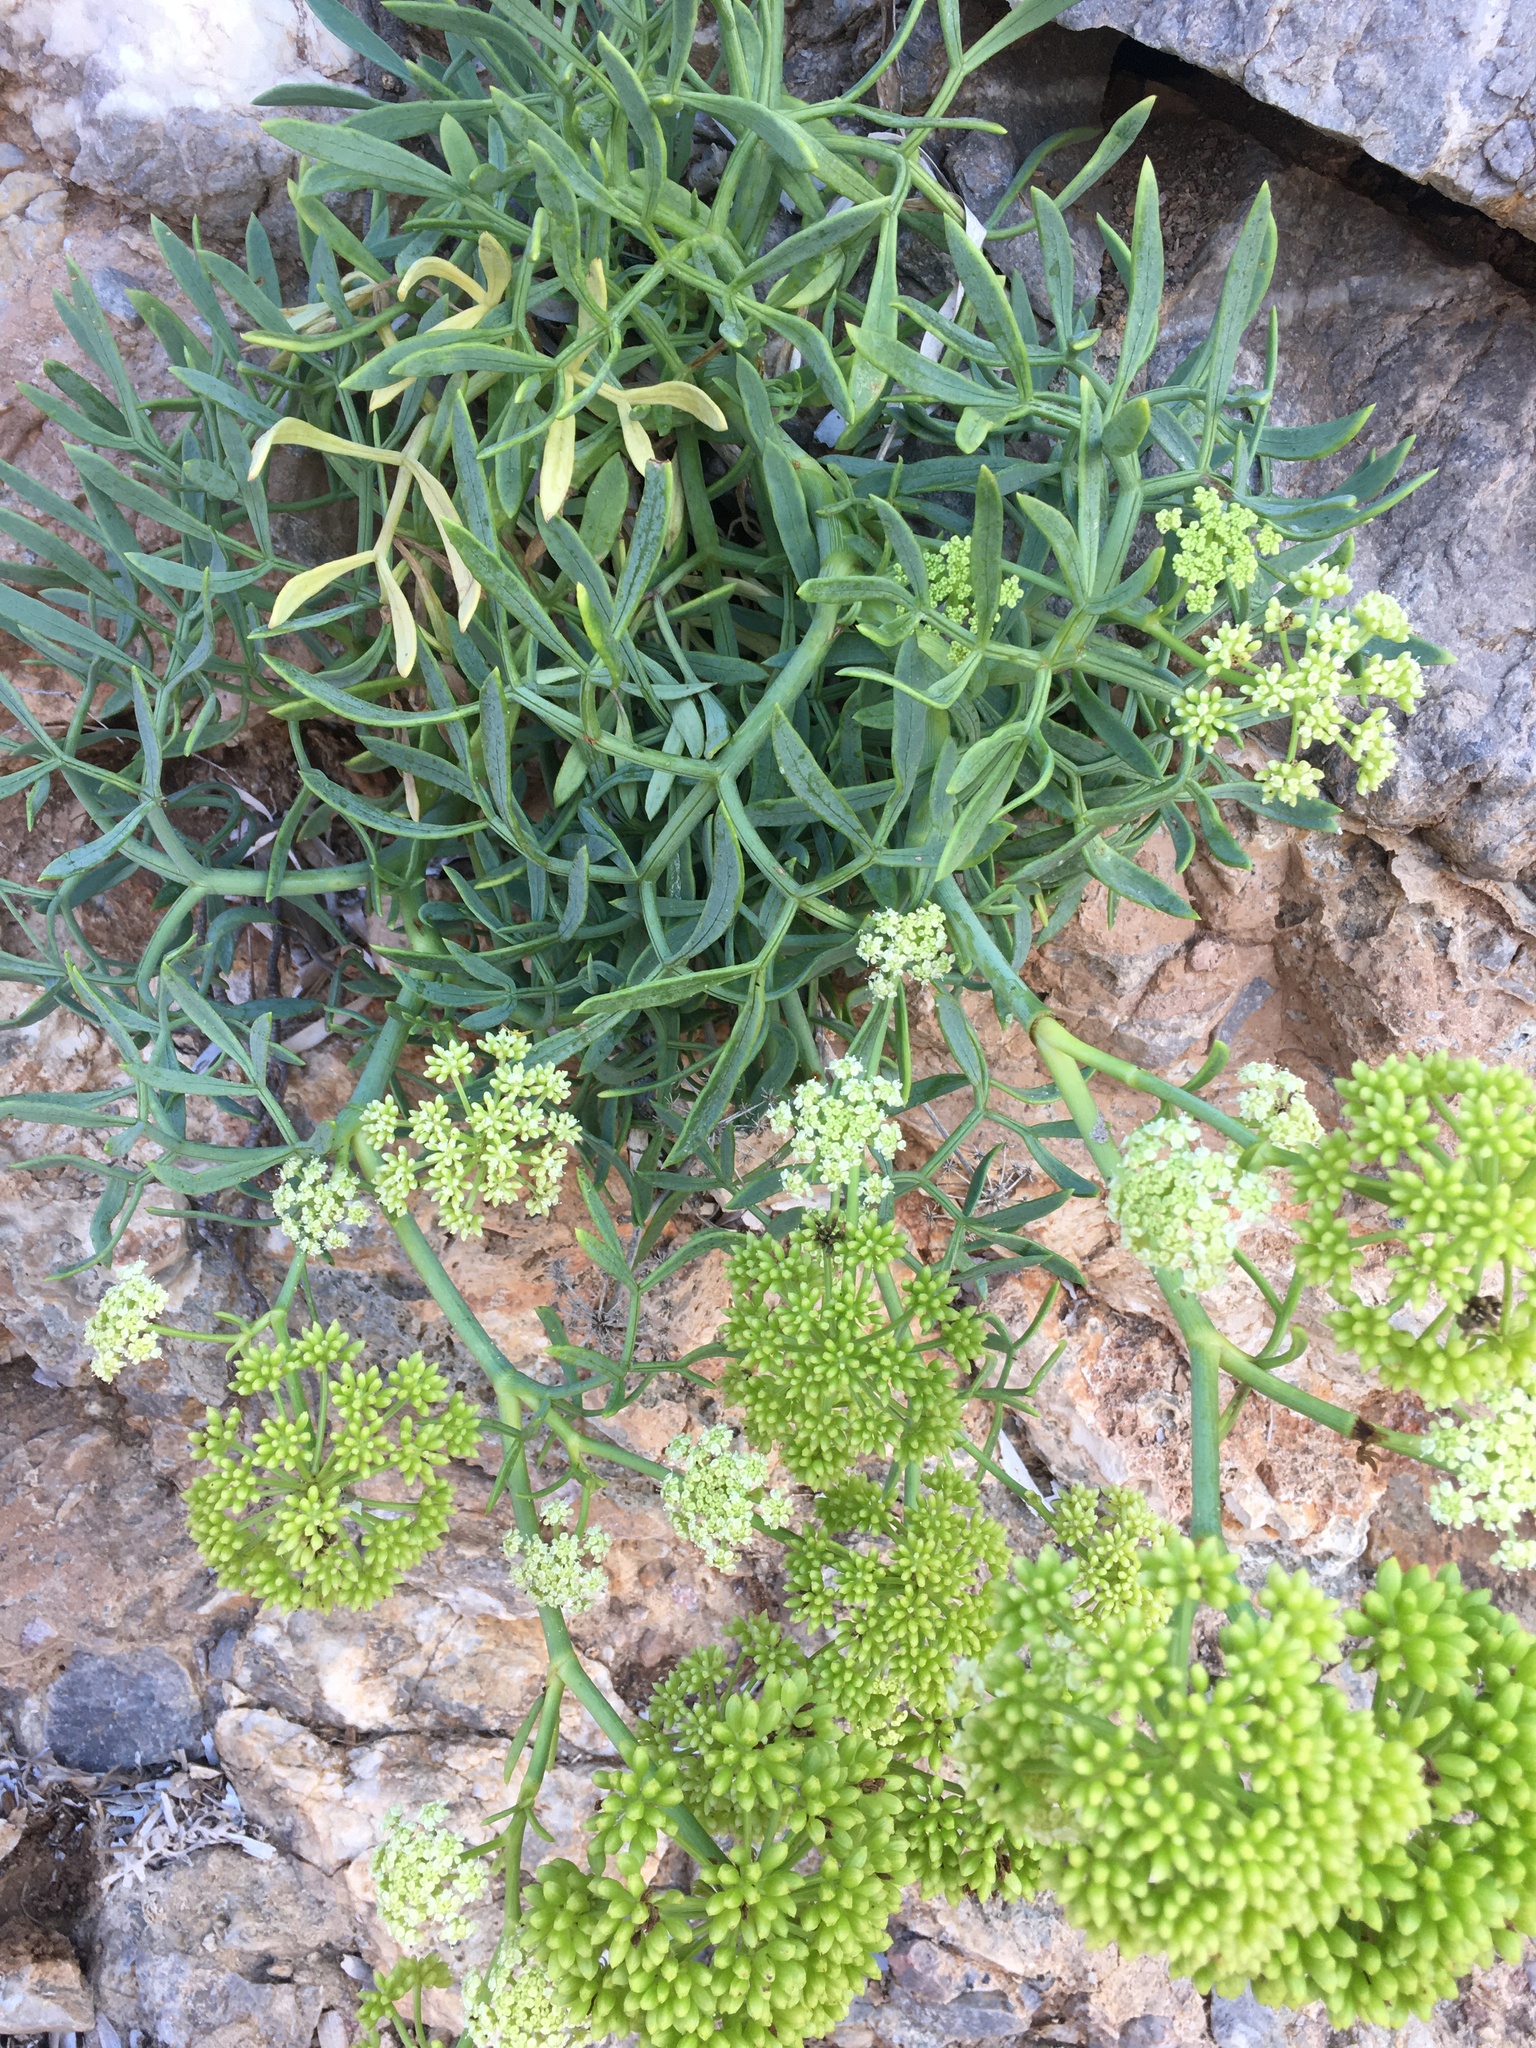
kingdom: Plantae
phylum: Tracheophyta
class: Magnoliopsida
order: Apiales
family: Apiaceae
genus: Crithmum
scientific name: Crithmum maritimum
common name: Rock samphire
